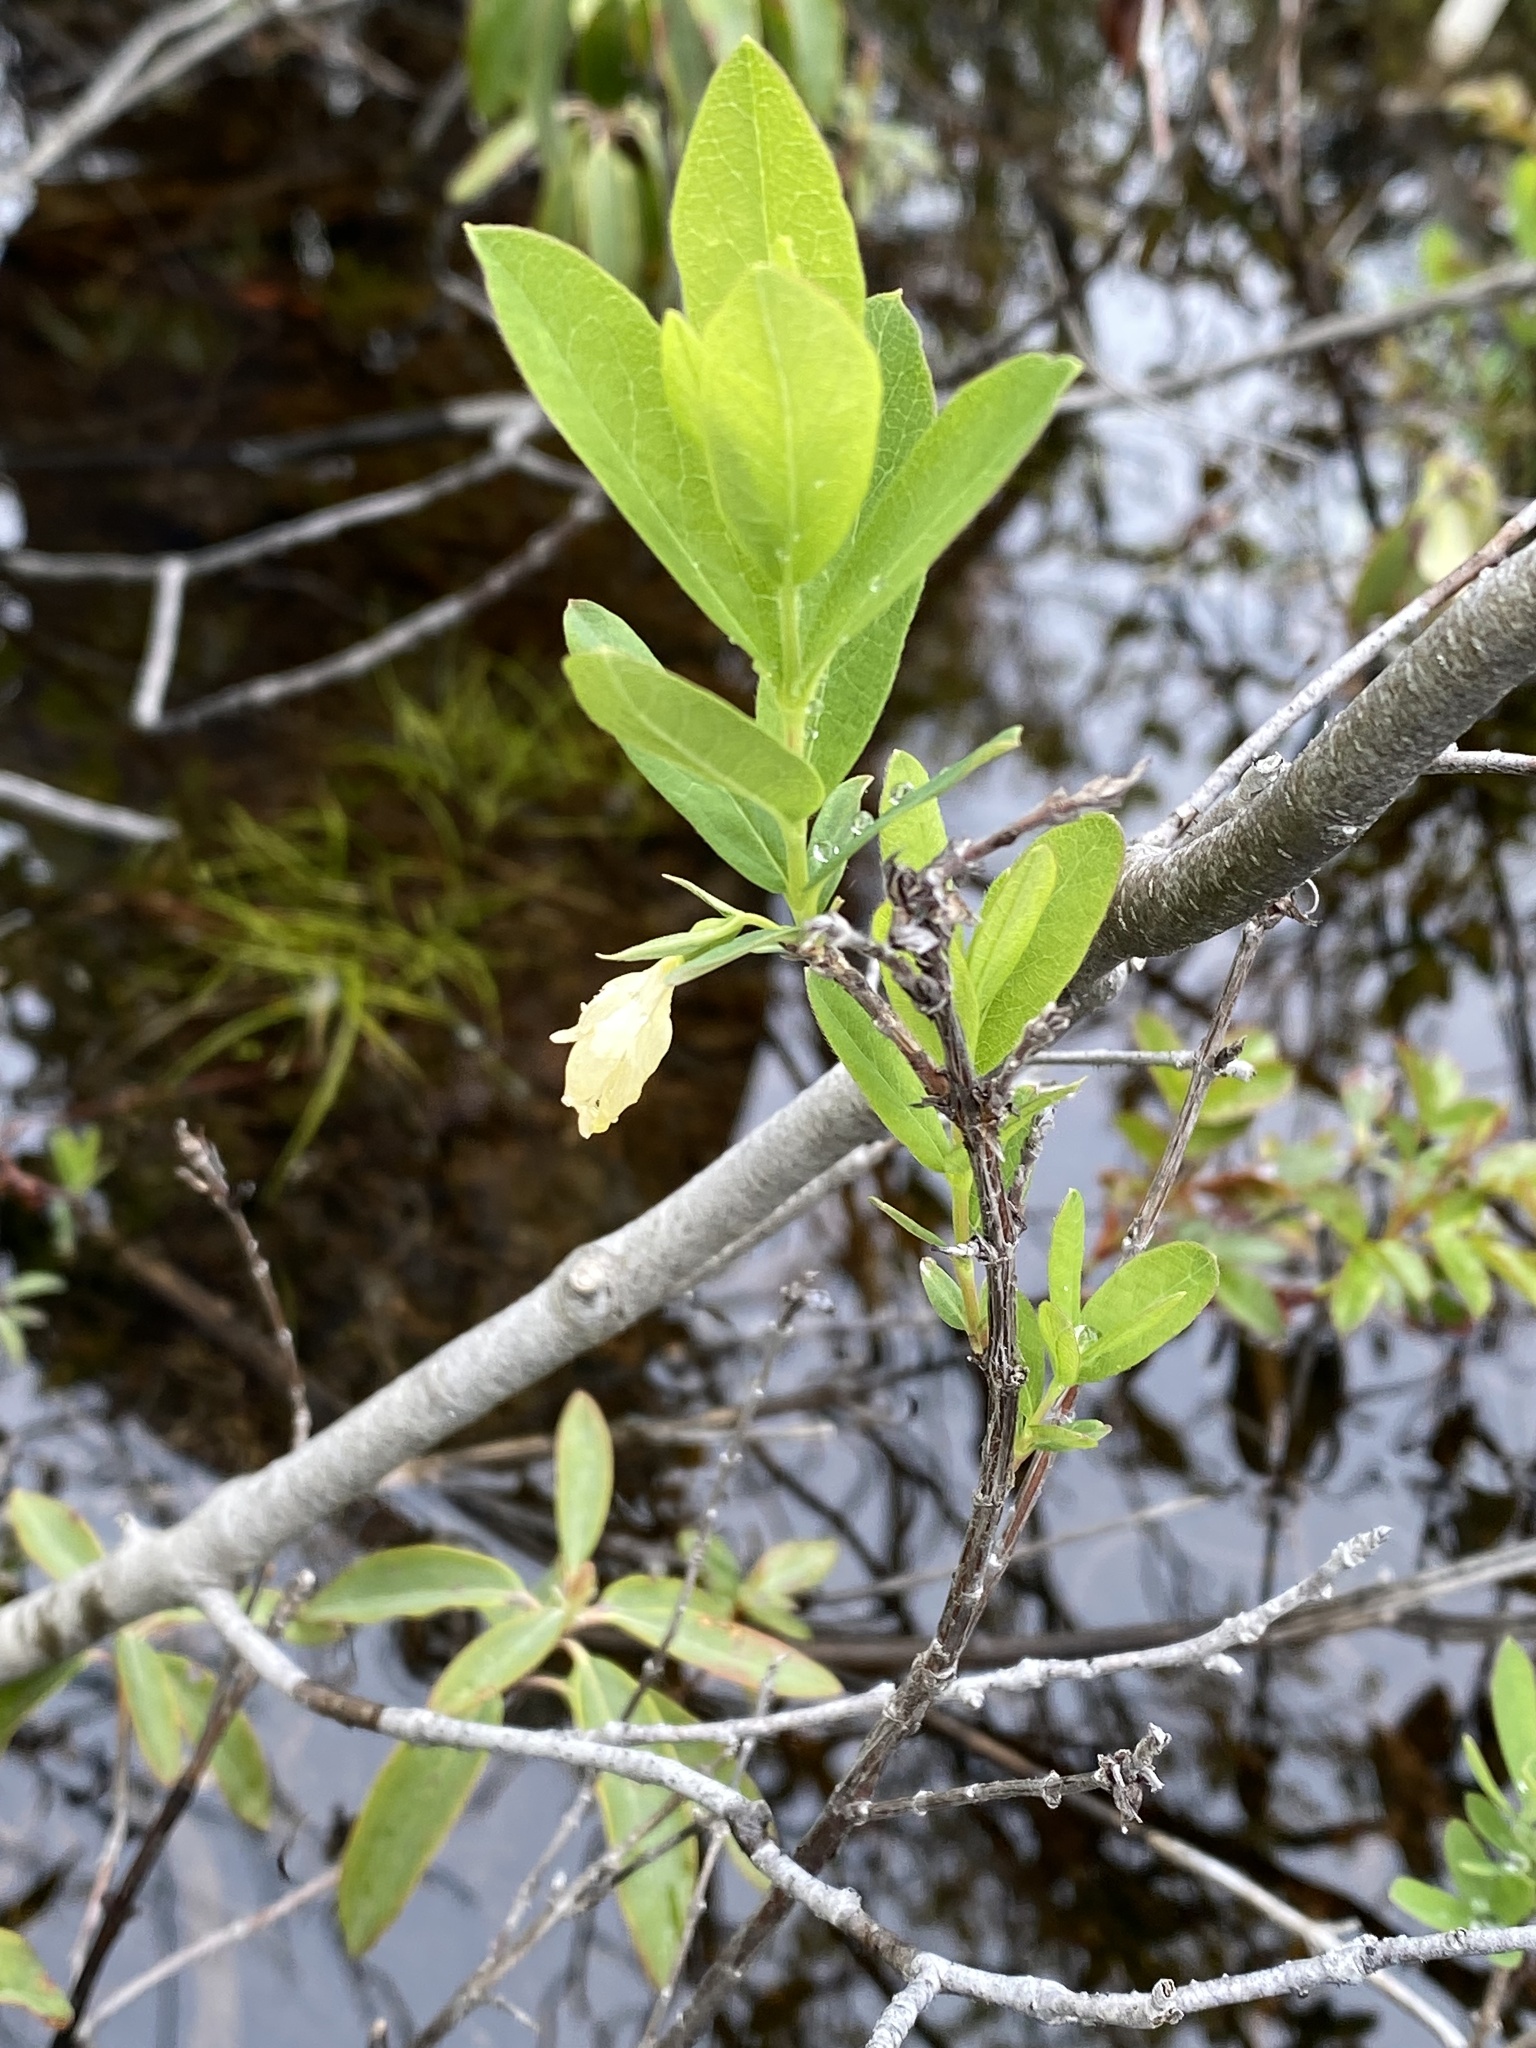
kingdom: Plantae
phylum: Tracheophyta
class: Magnoliopsida
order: Dipsacales
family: Caprifoliaceae
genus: Lonicera
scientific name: Lonicera villosa
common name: Mountain fly-honeysuckle
